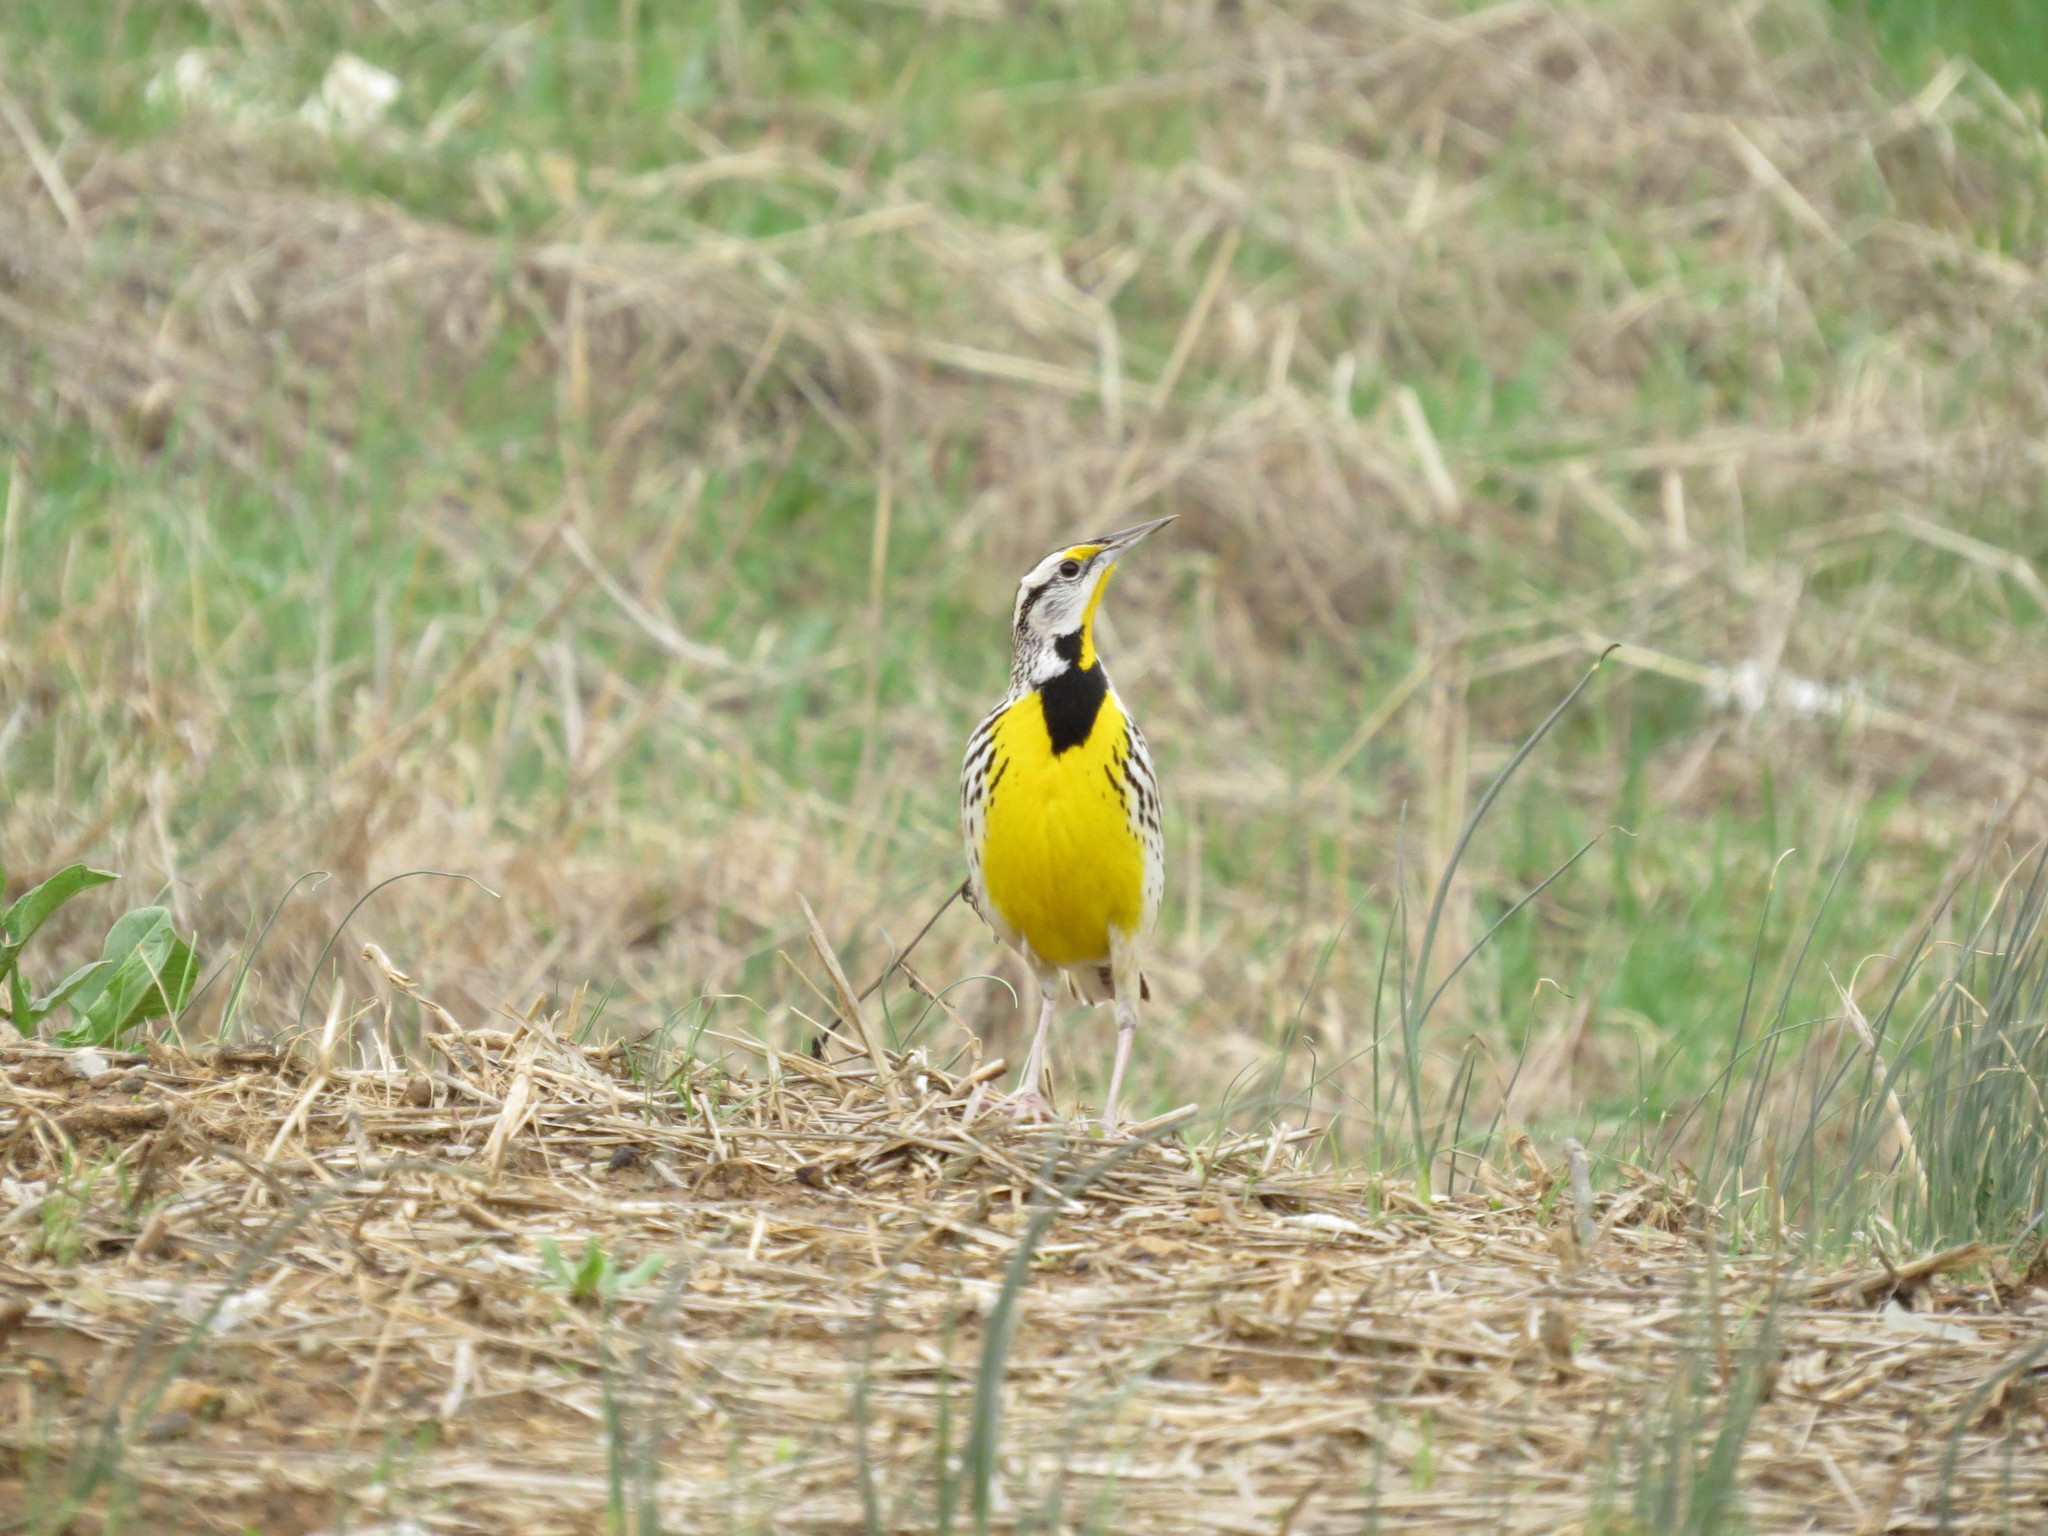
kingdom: Animalia
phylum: Chordata
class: Aves
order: Passeriformes
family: Icteridae
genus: Sturnella
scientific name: Sturnella magna
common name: Eastern meadowlark
